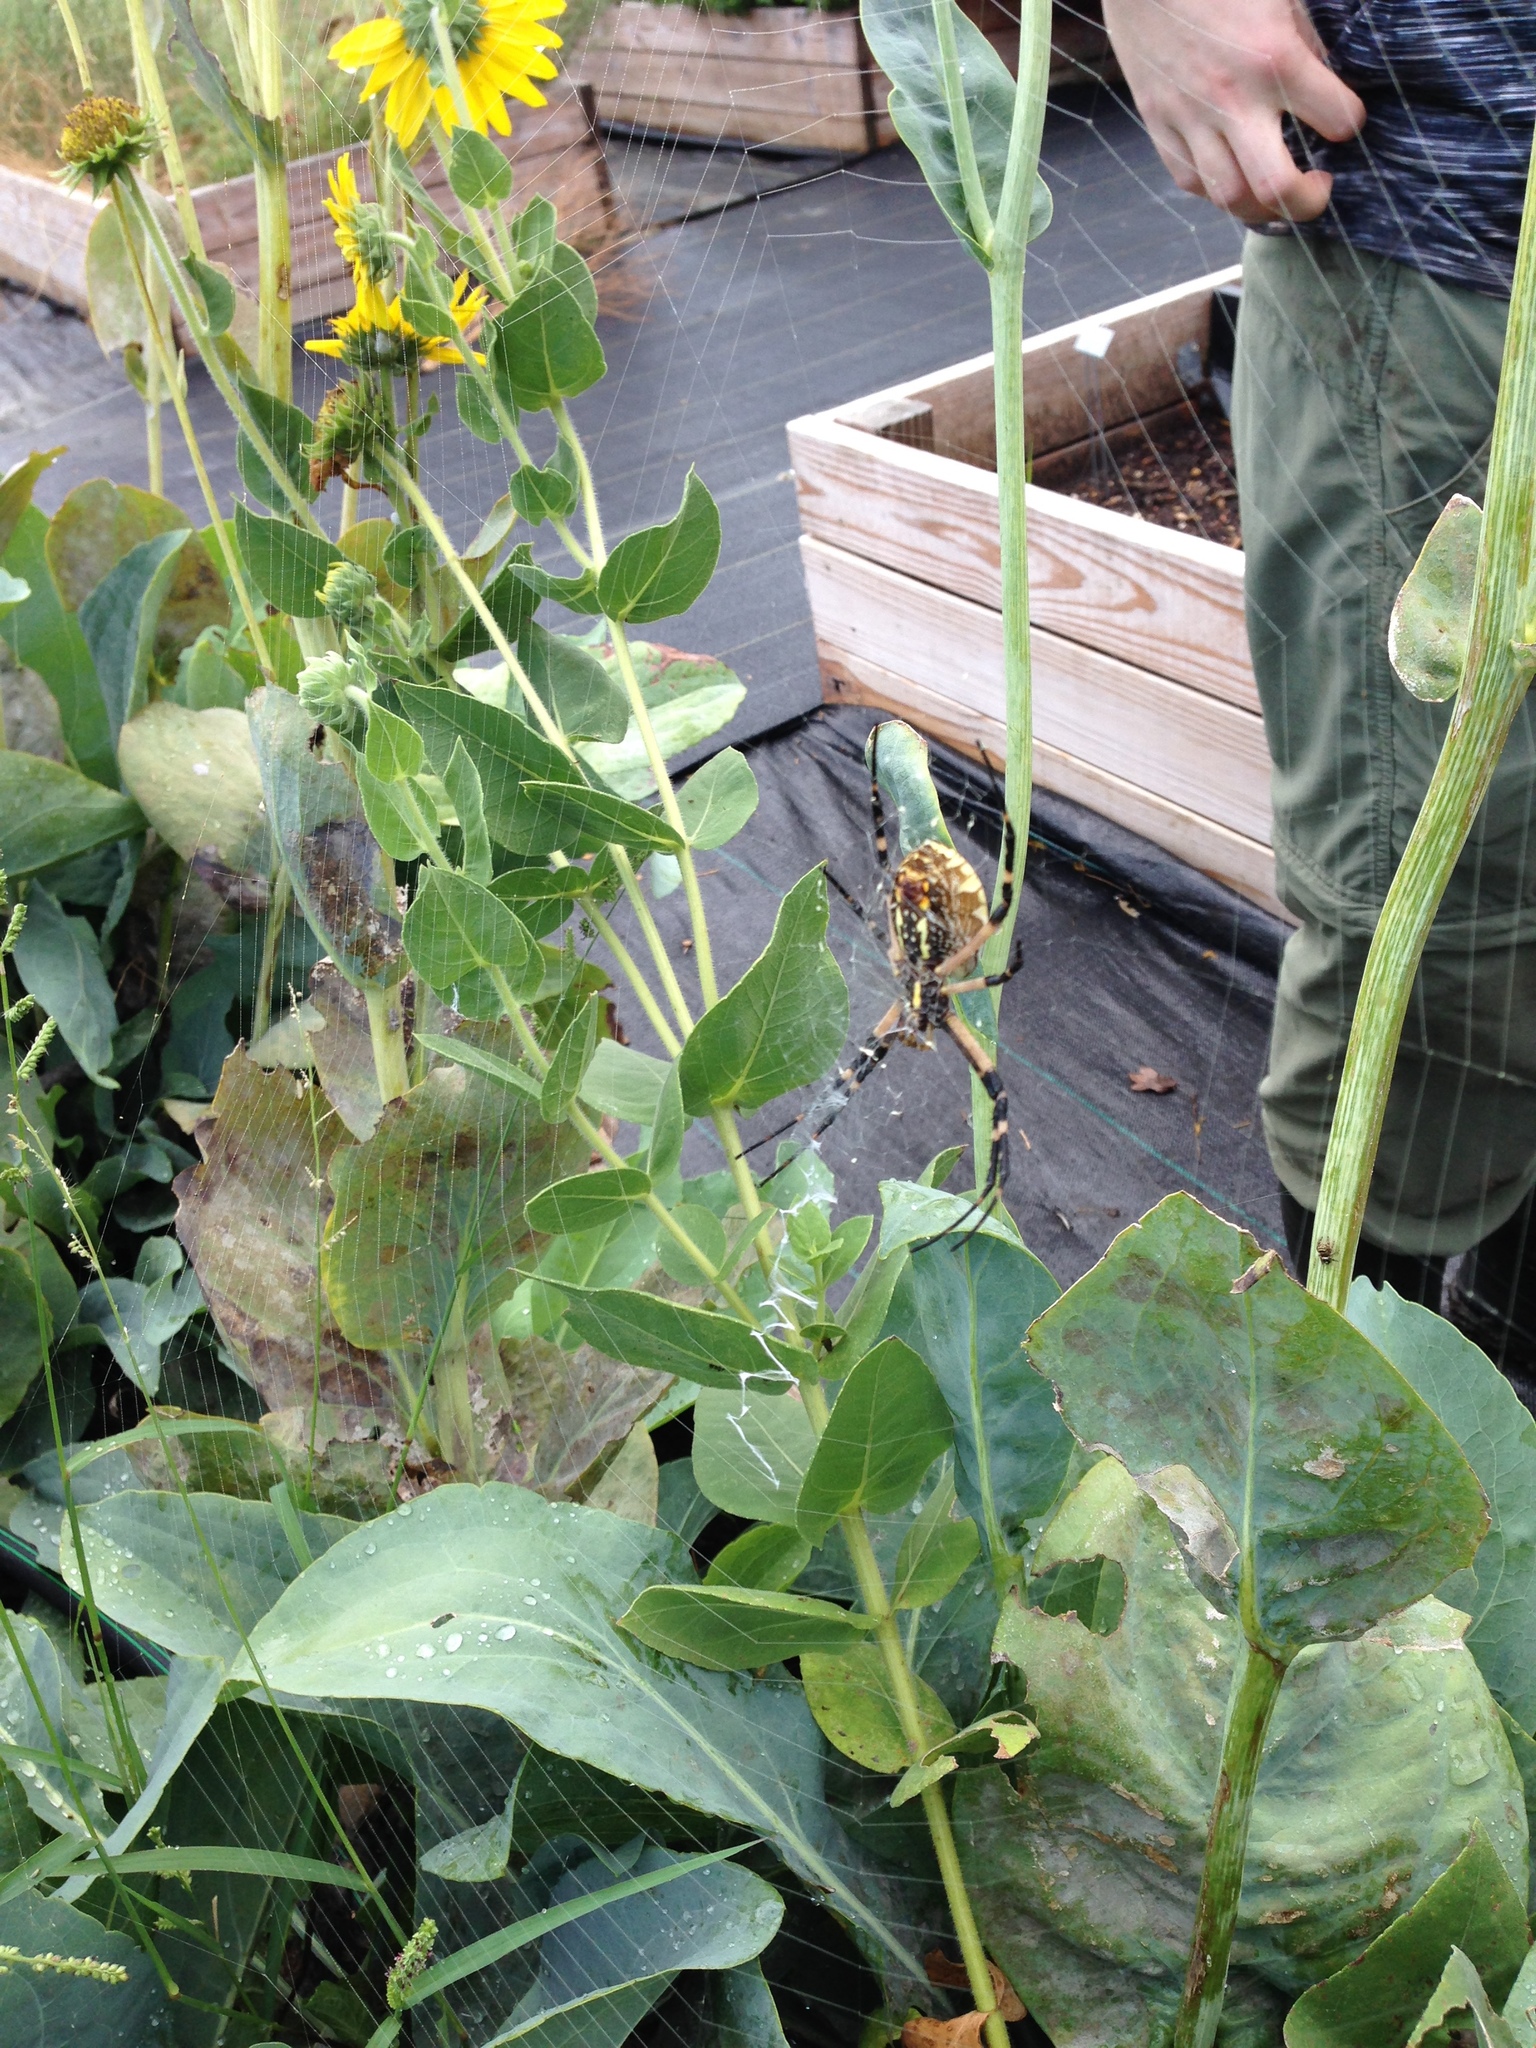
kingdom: Animalia
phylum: Arthropoda
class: Arachnida
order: Araneae
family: Araneidae
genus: Argiope
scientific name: Argiope aurantia
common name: Orb weavers
